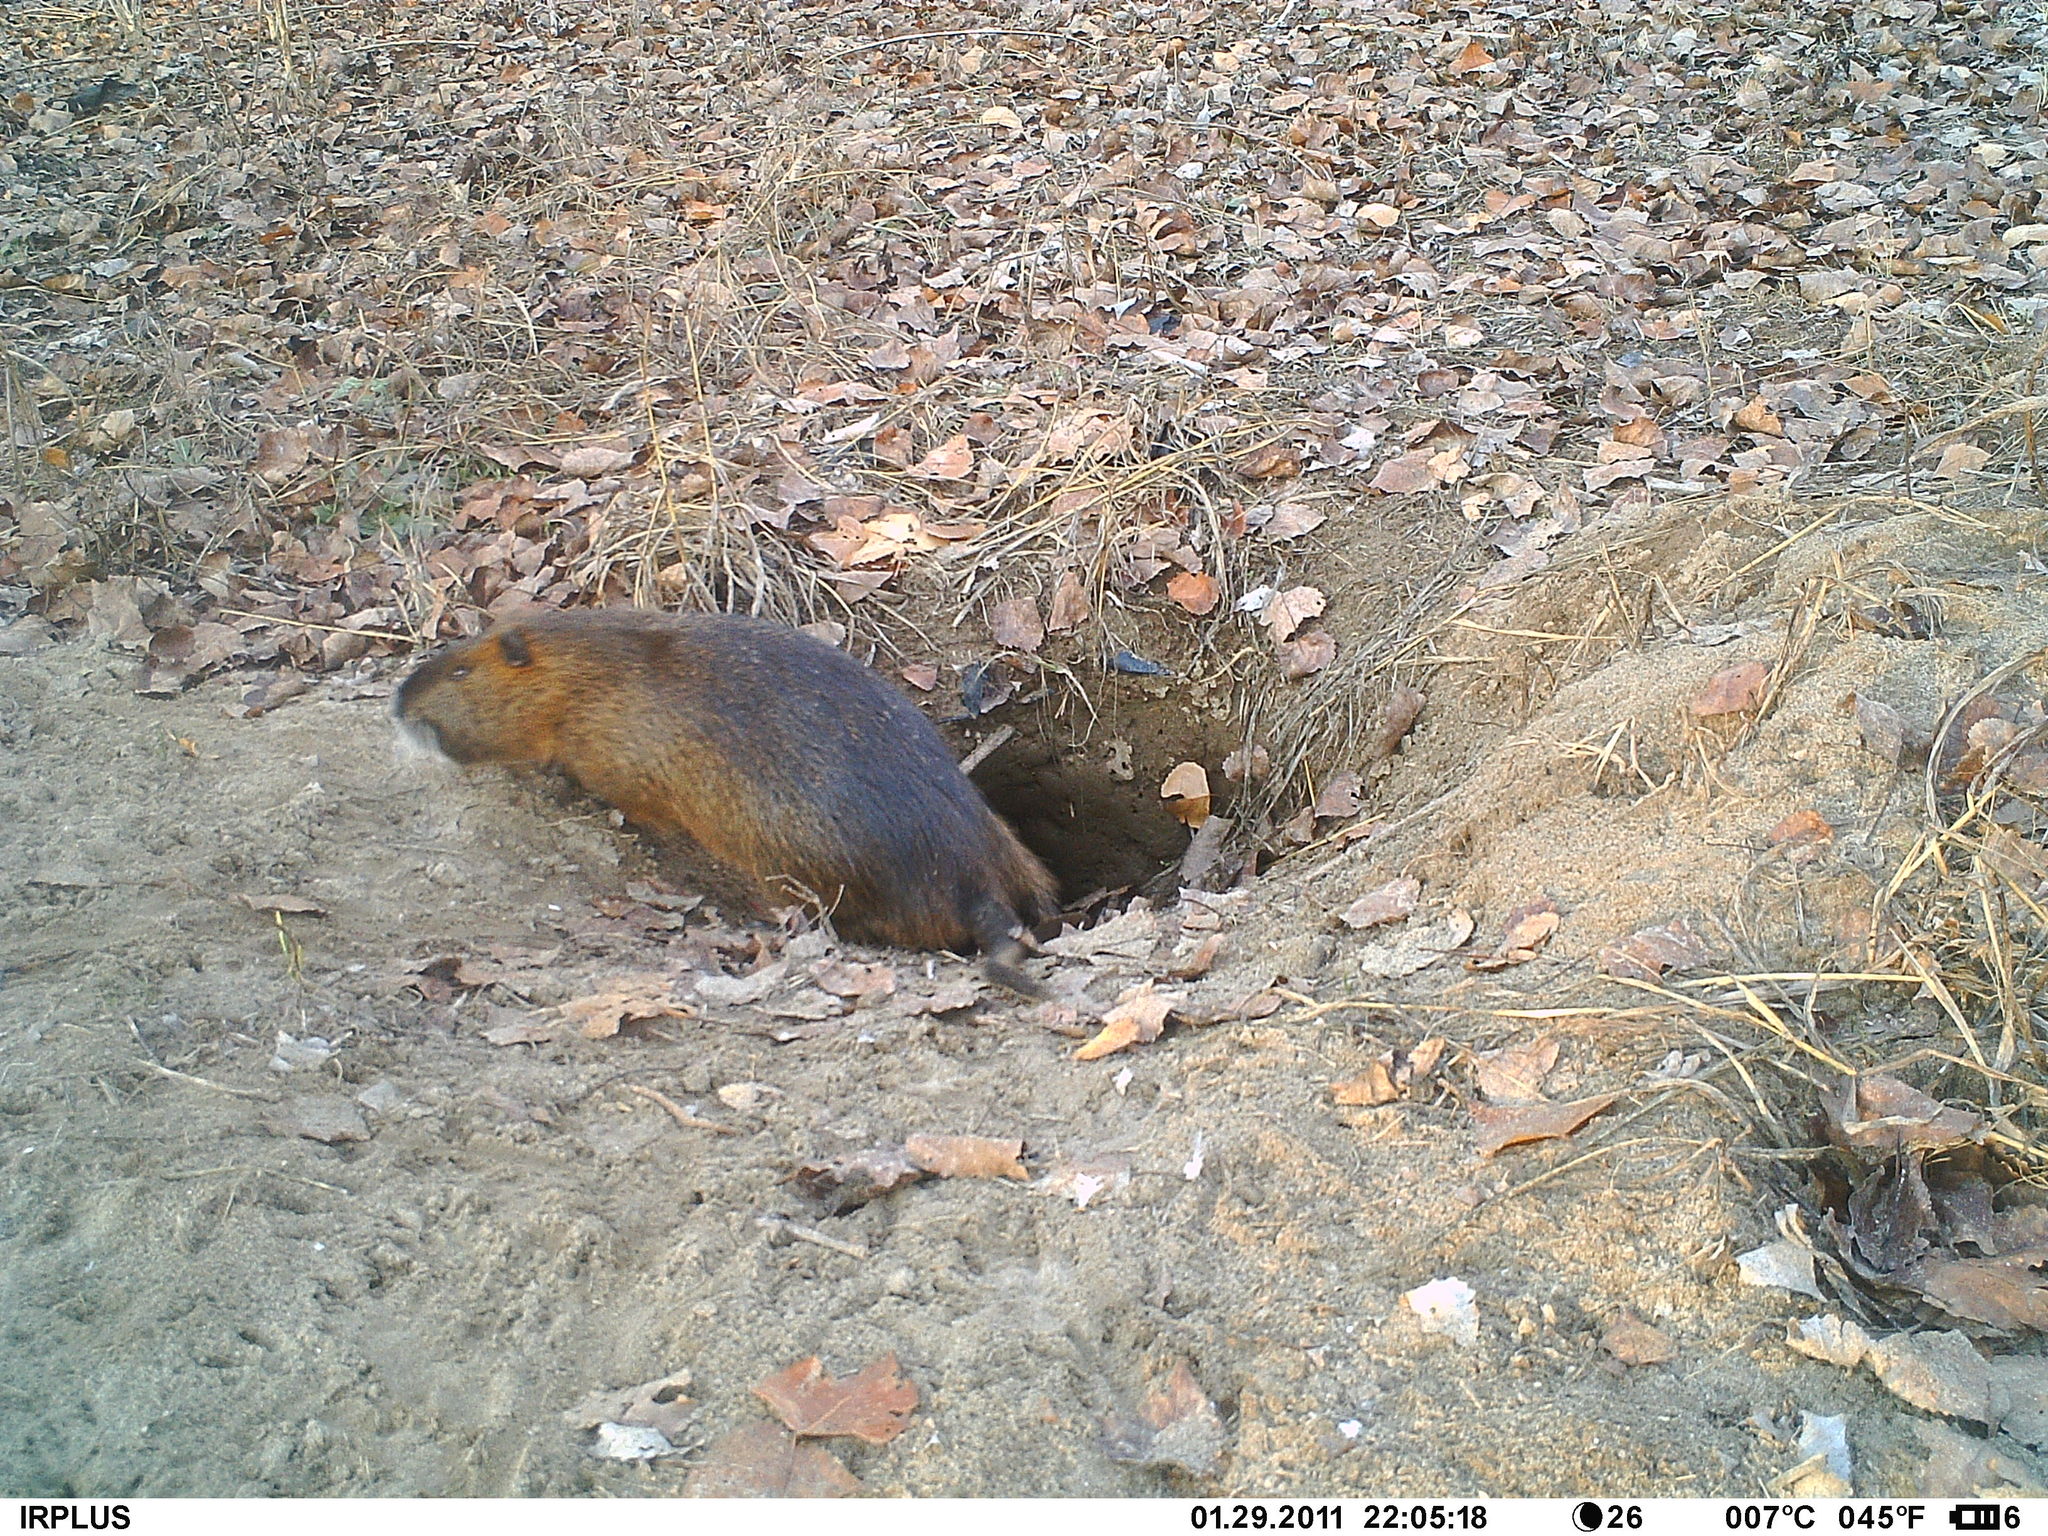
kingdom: Animalia
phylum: Chordata
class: Mammalia
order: Rodentia
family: Myocastoridae
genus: Myocastor
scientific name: Myocastor coypus
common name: Coypu
